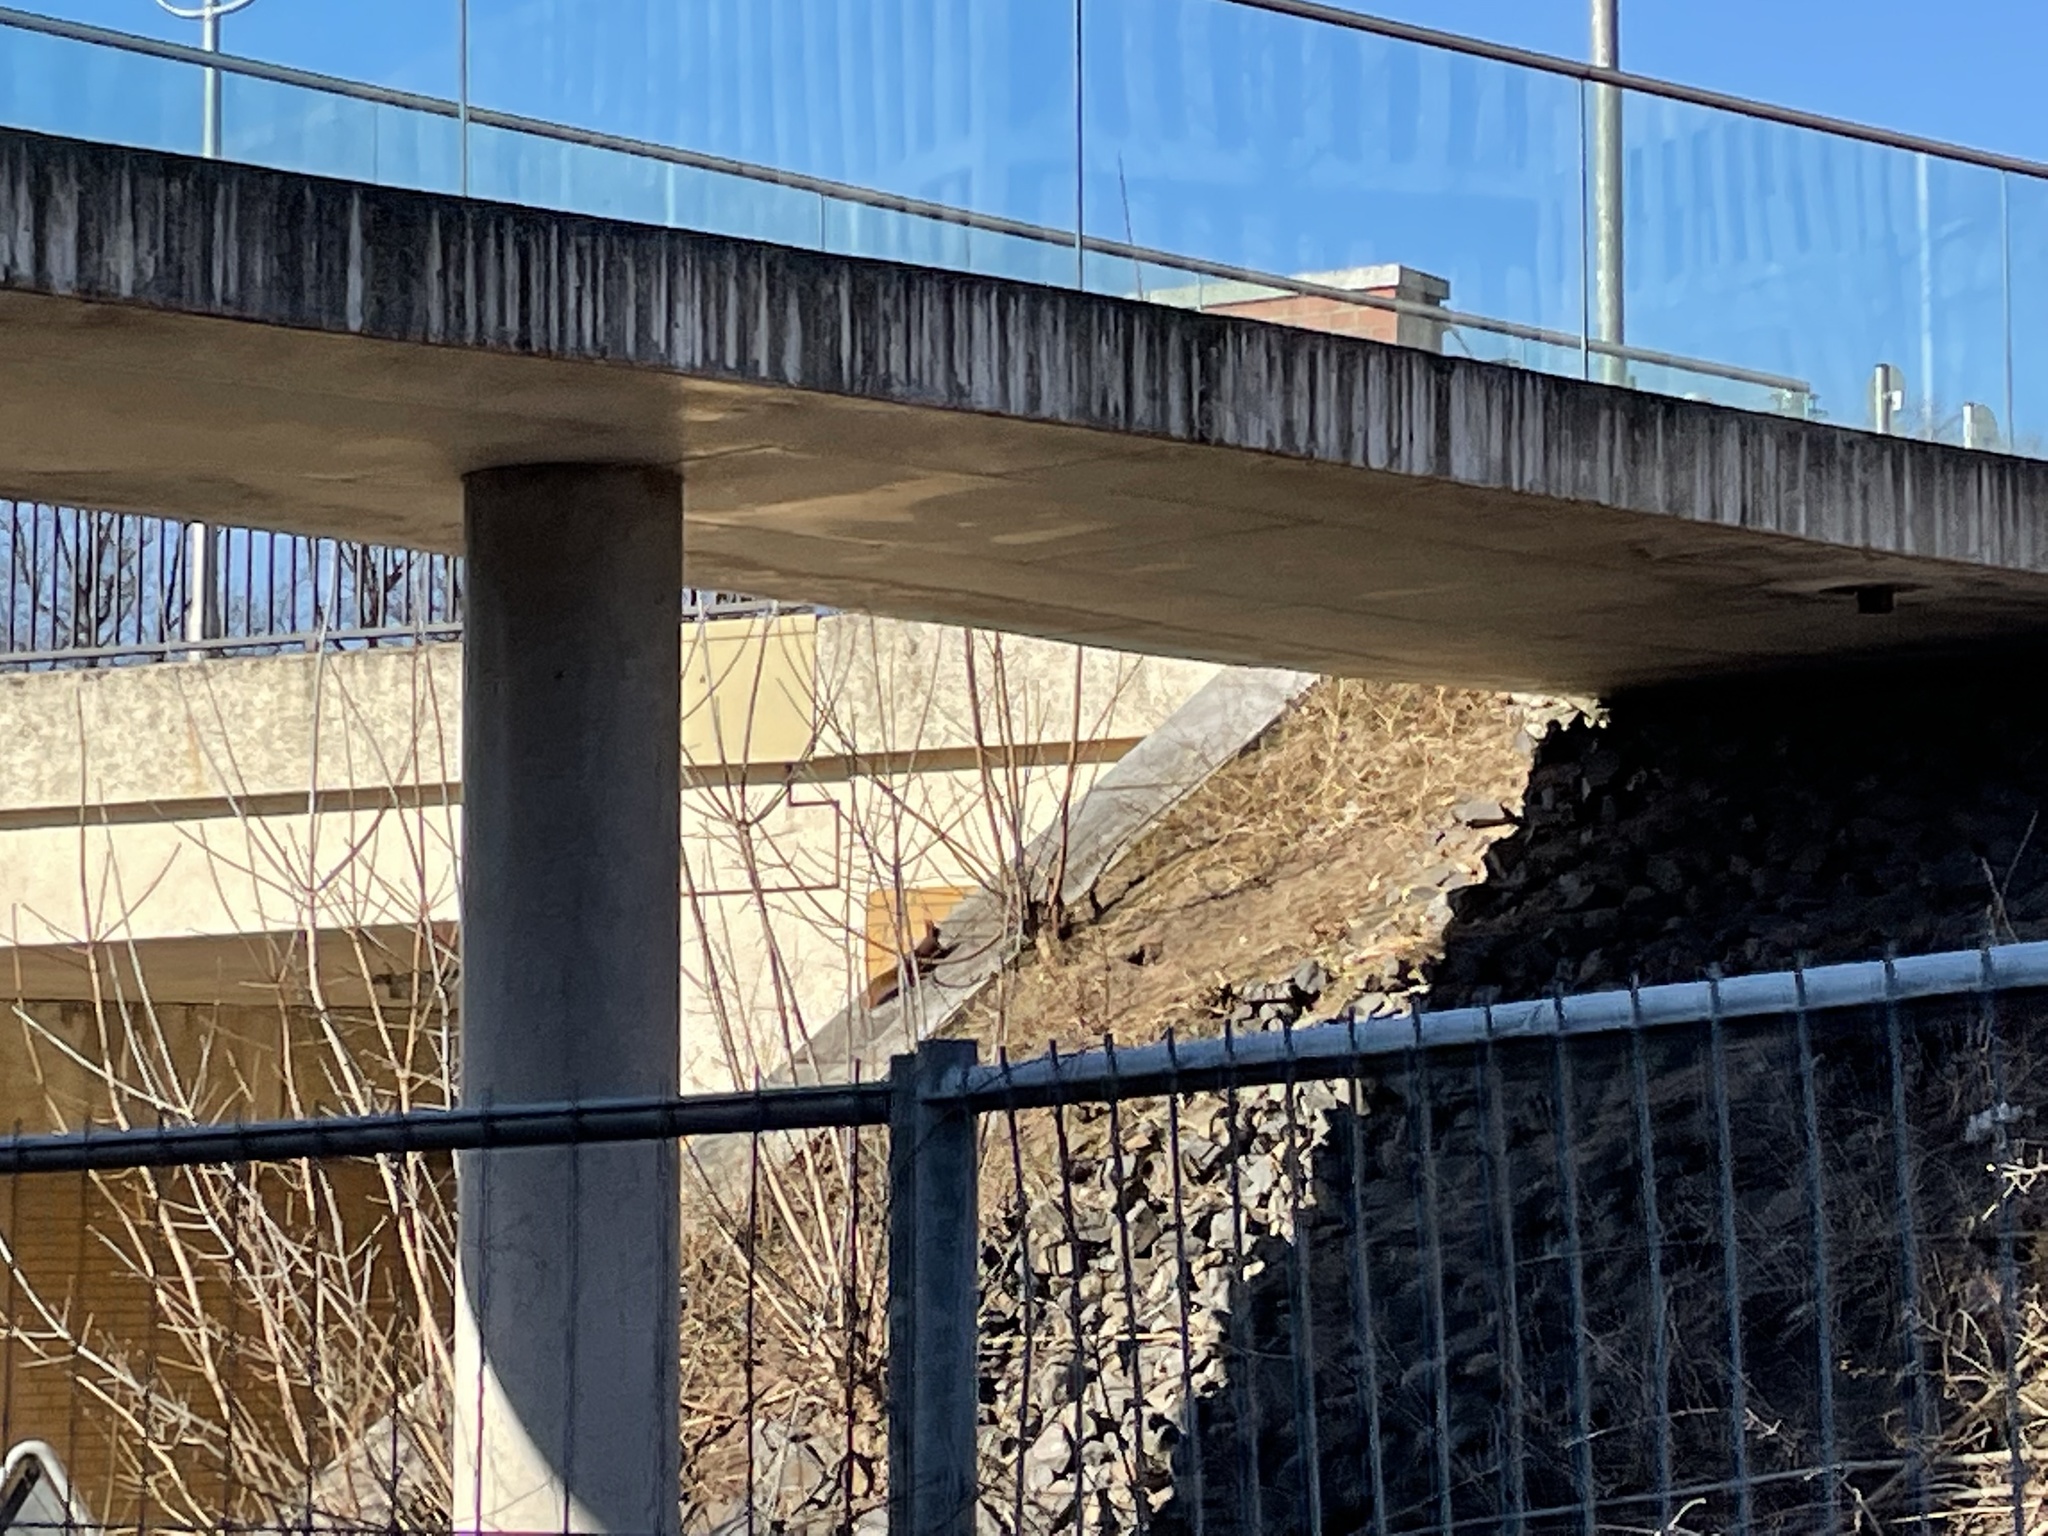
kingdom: Animalia
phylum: Chordata
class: Mammalia
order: Rodentia
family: Sciuridae
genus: Sciurus
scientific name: Sciurus vulgaris
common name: Eurasian red squirrel
